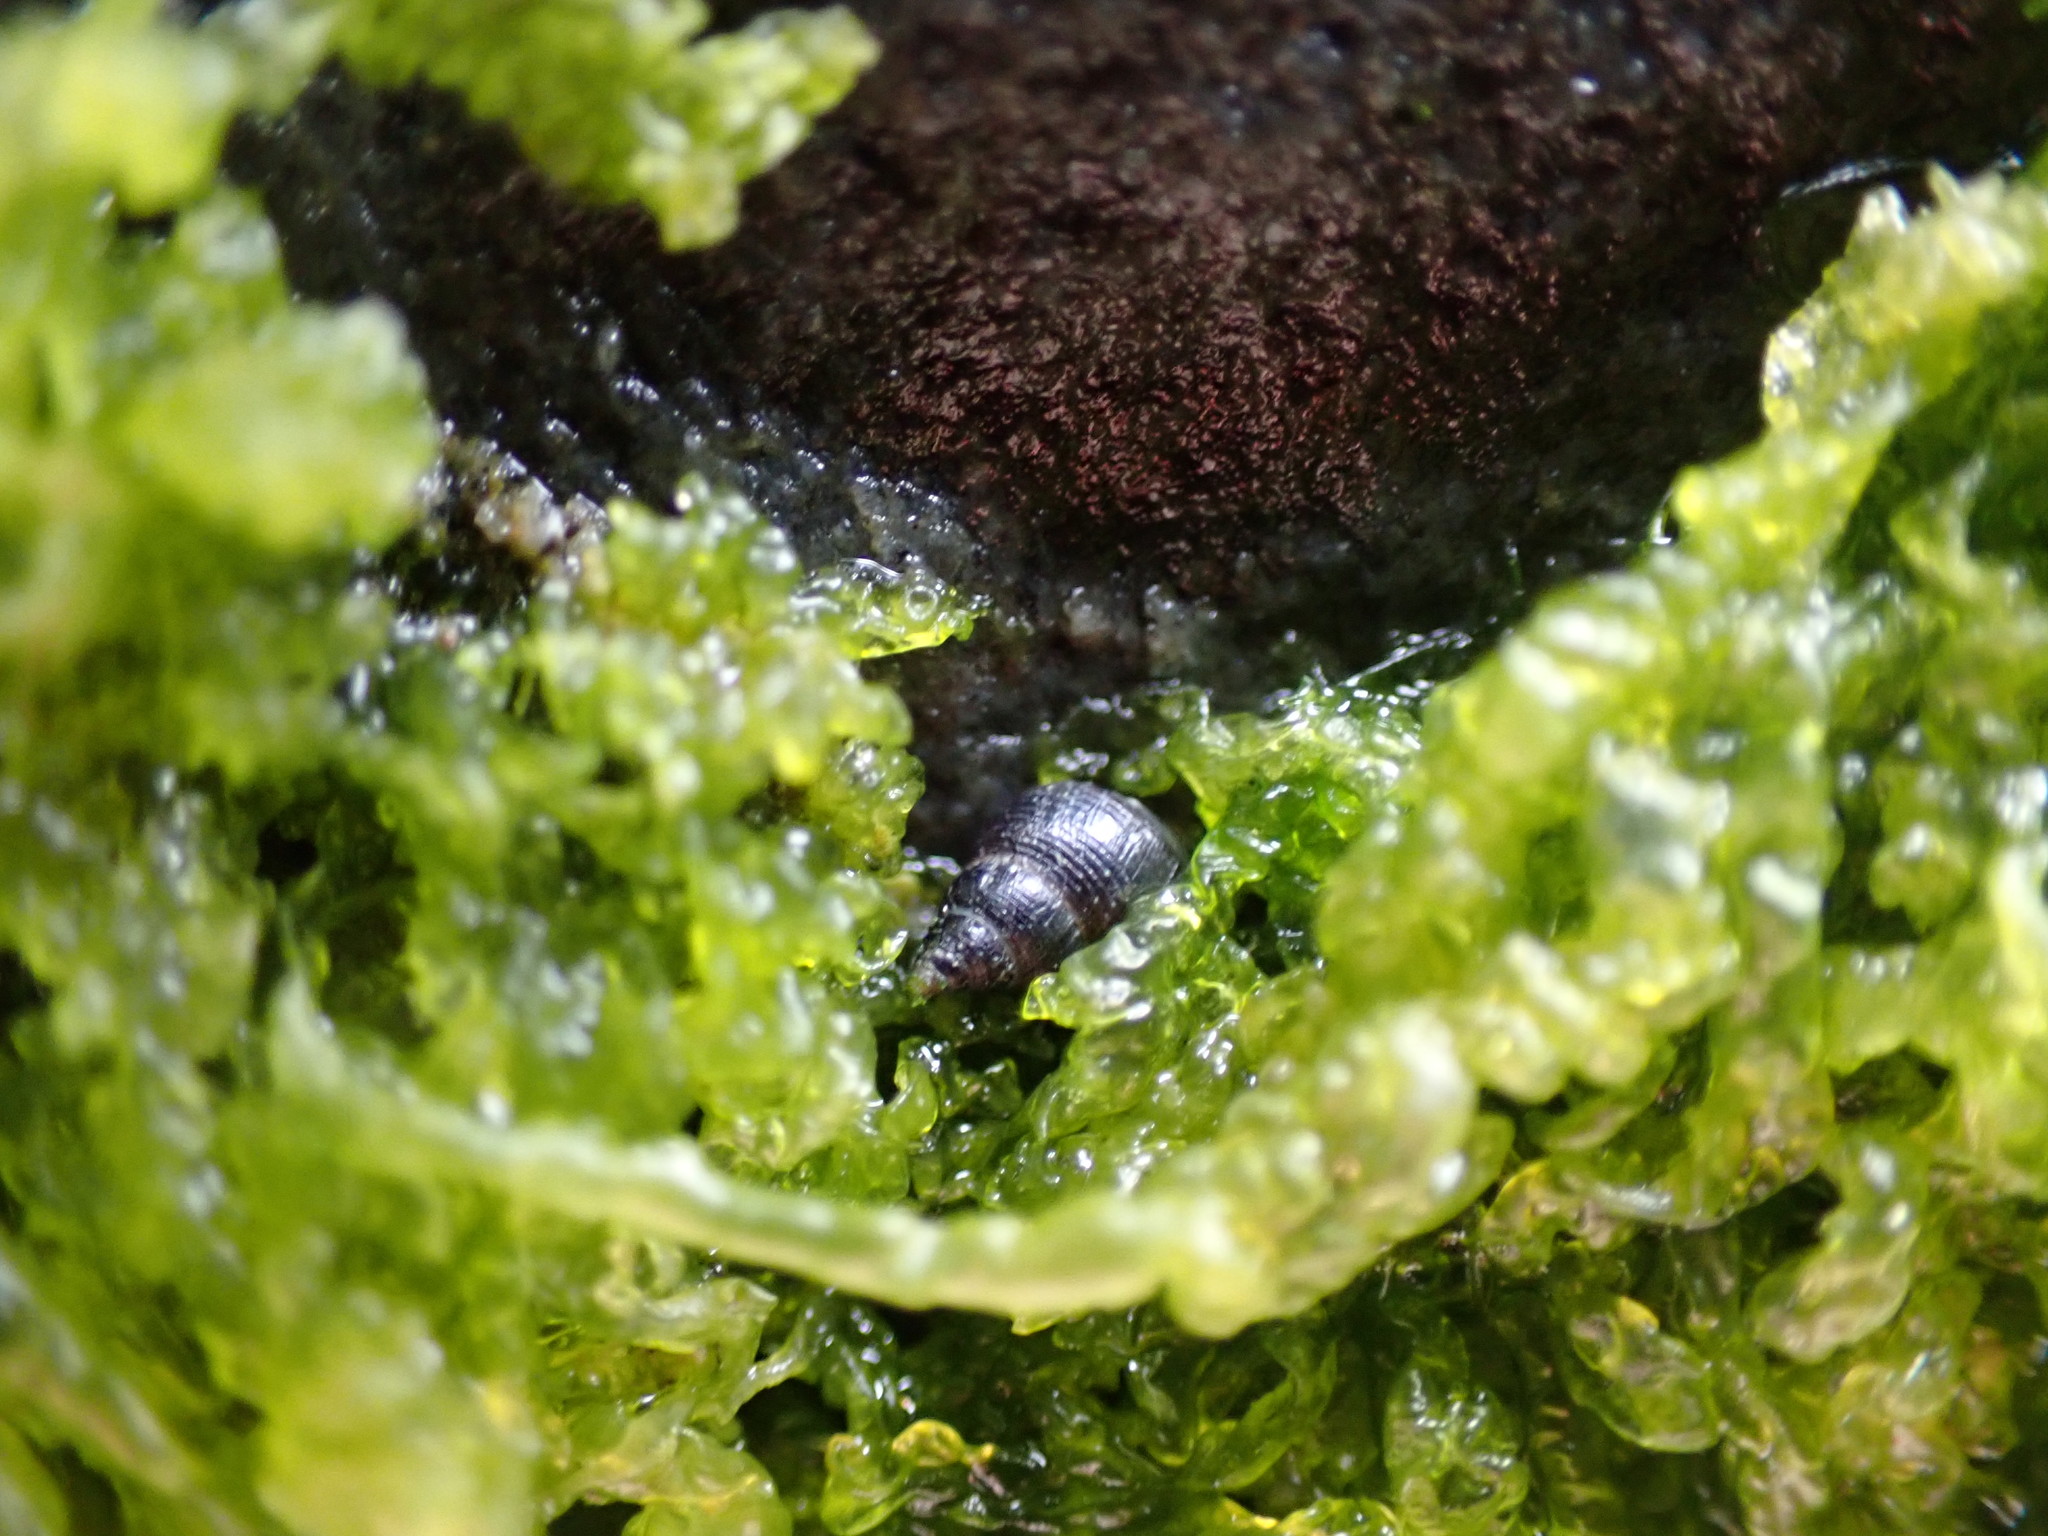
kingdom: Animalia
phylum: Mollusca
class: Gastropoda
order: Littorinimorpha
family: Littorinidae
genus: Austrolittorina
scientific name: Austrolittorina cincta
